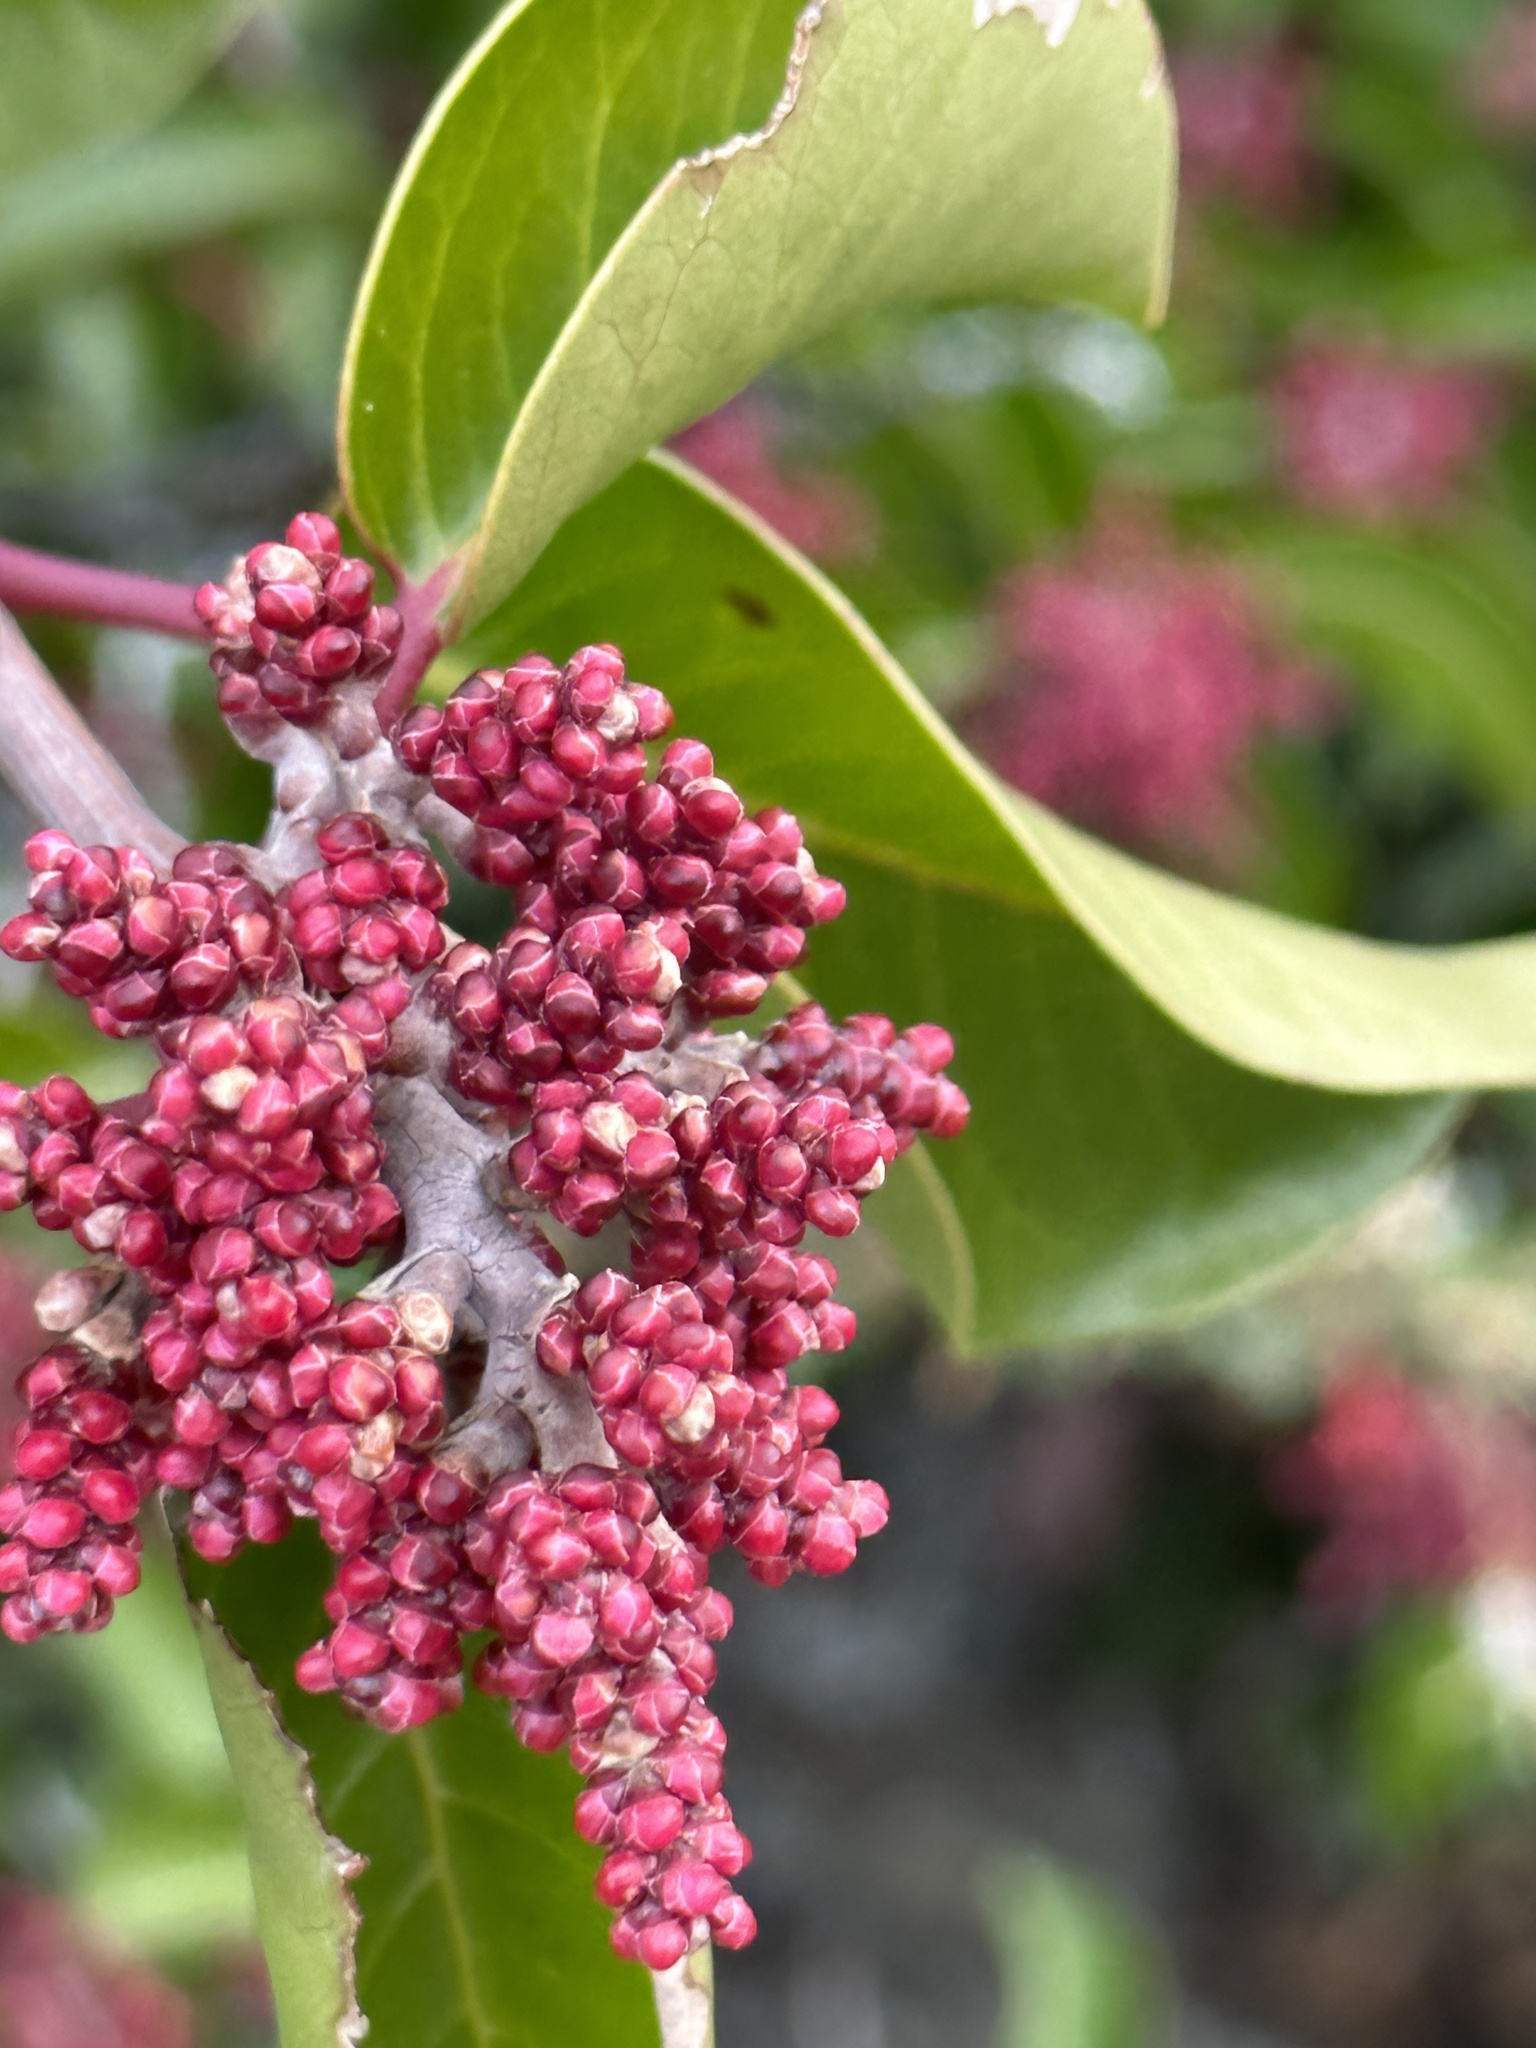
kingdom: Plantae
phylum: Tracheophyta
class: Magnoliopsida
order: Sapindales
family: Anacardiaceae
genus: Rhus
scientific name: Rhus ovata
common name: Sugar sumac
